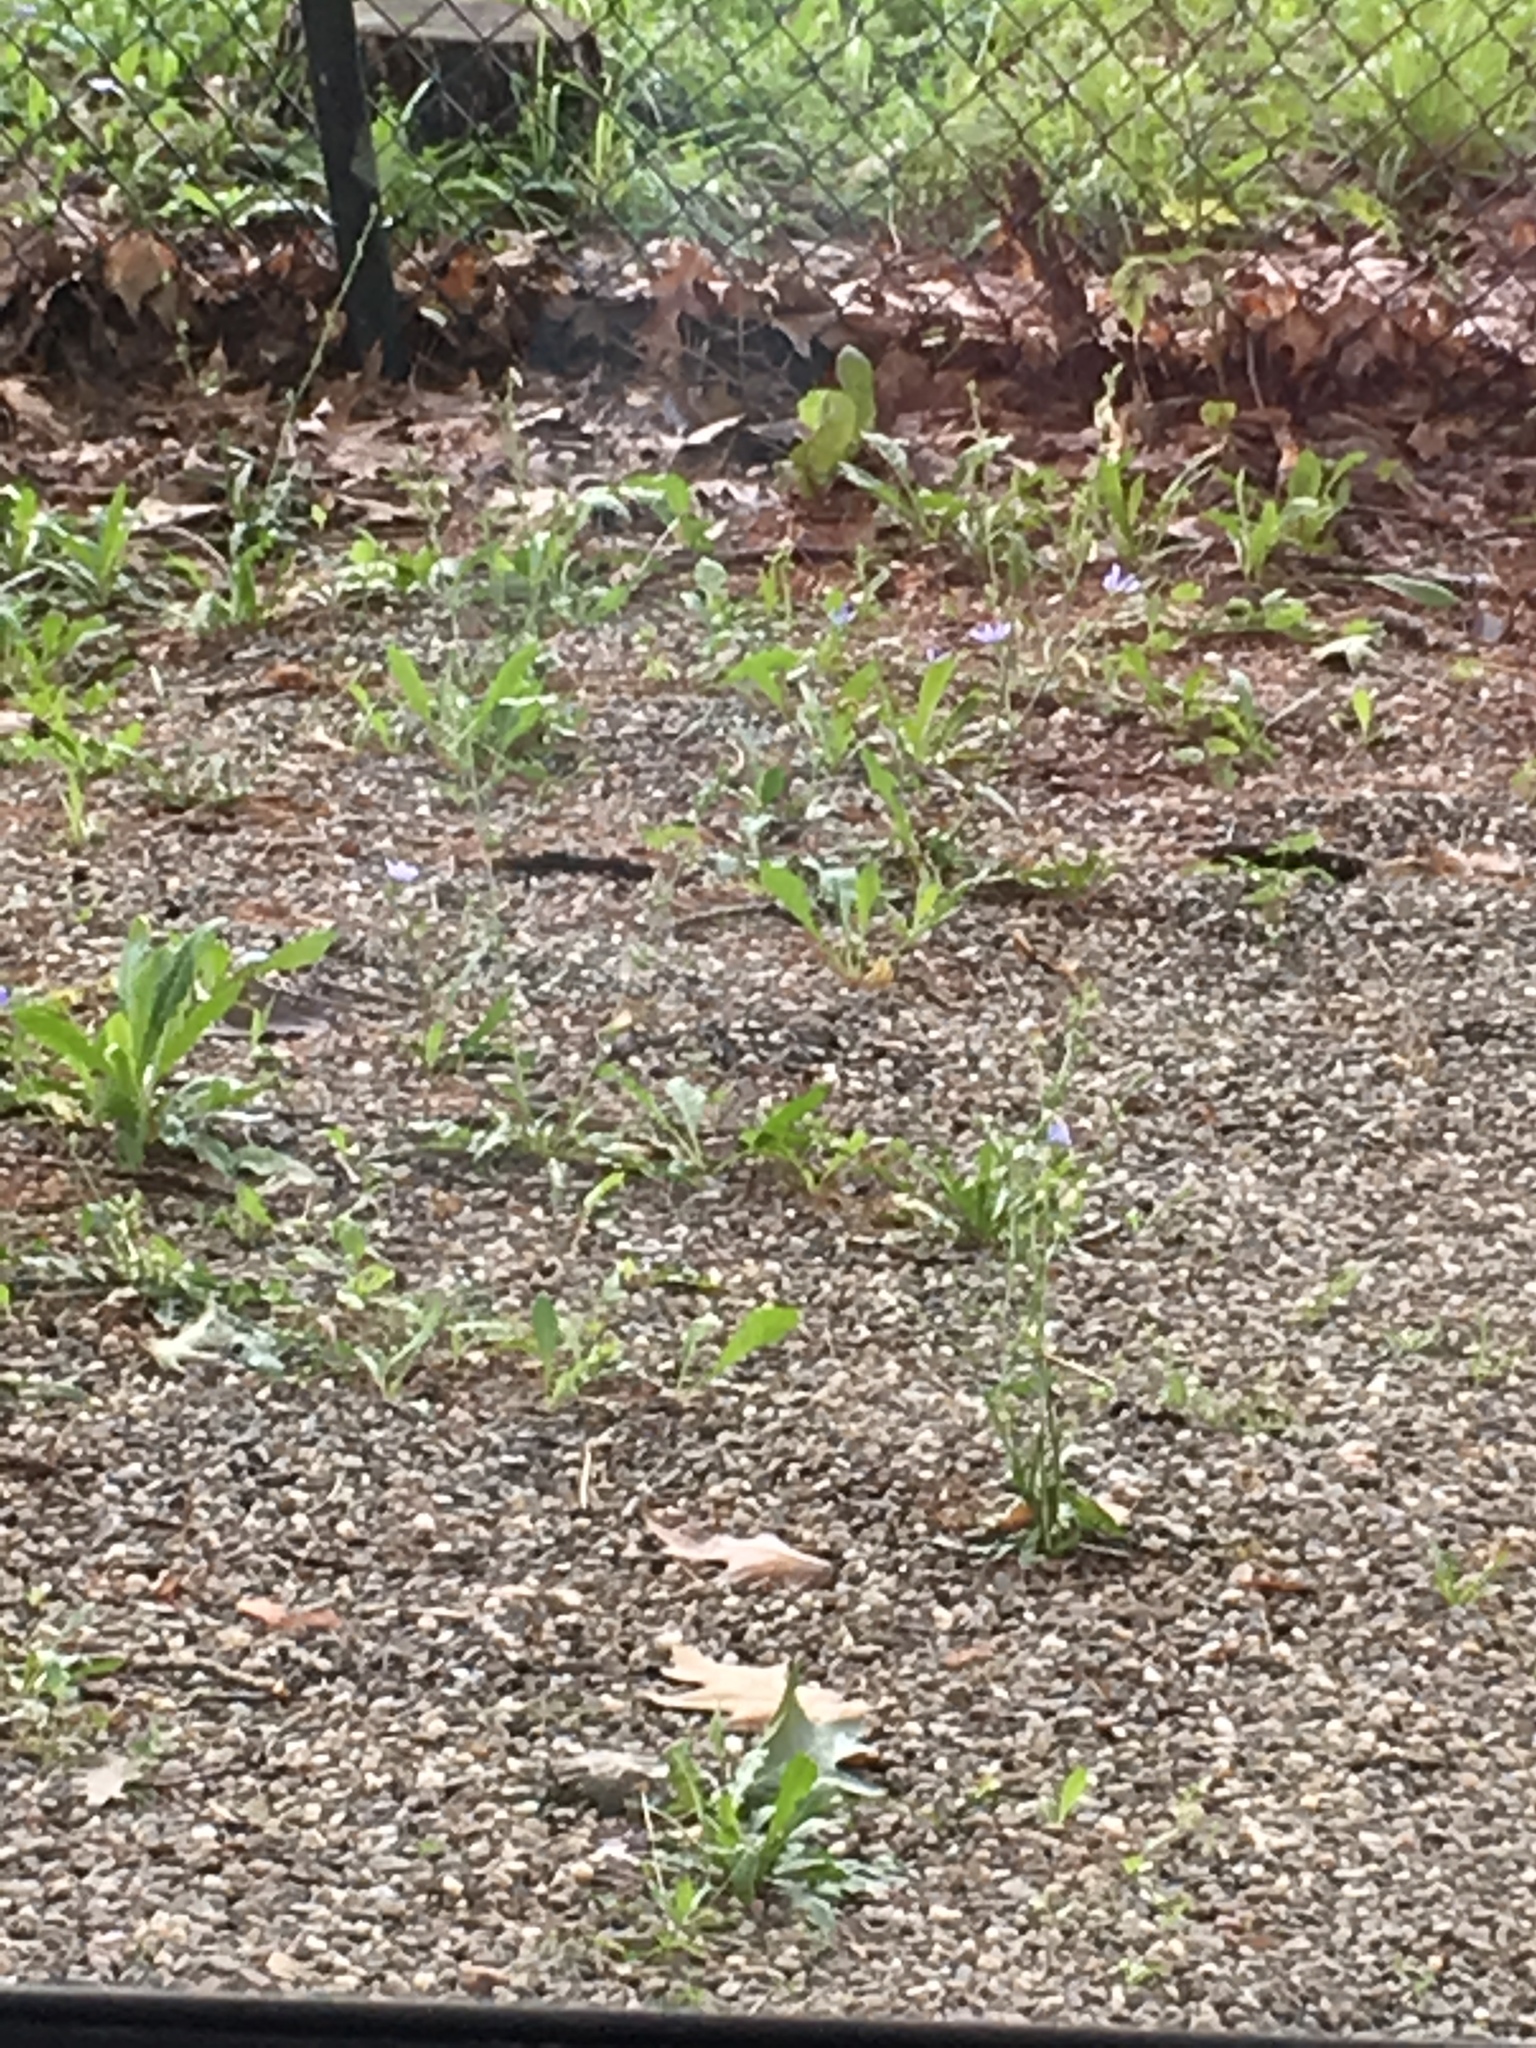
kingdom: Plantae
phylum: Tracheophyta
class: Magnoliopsida
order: Asterales
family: Asteraceae
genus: Cichorium
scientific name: Cichorium intybus
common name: Chicory
